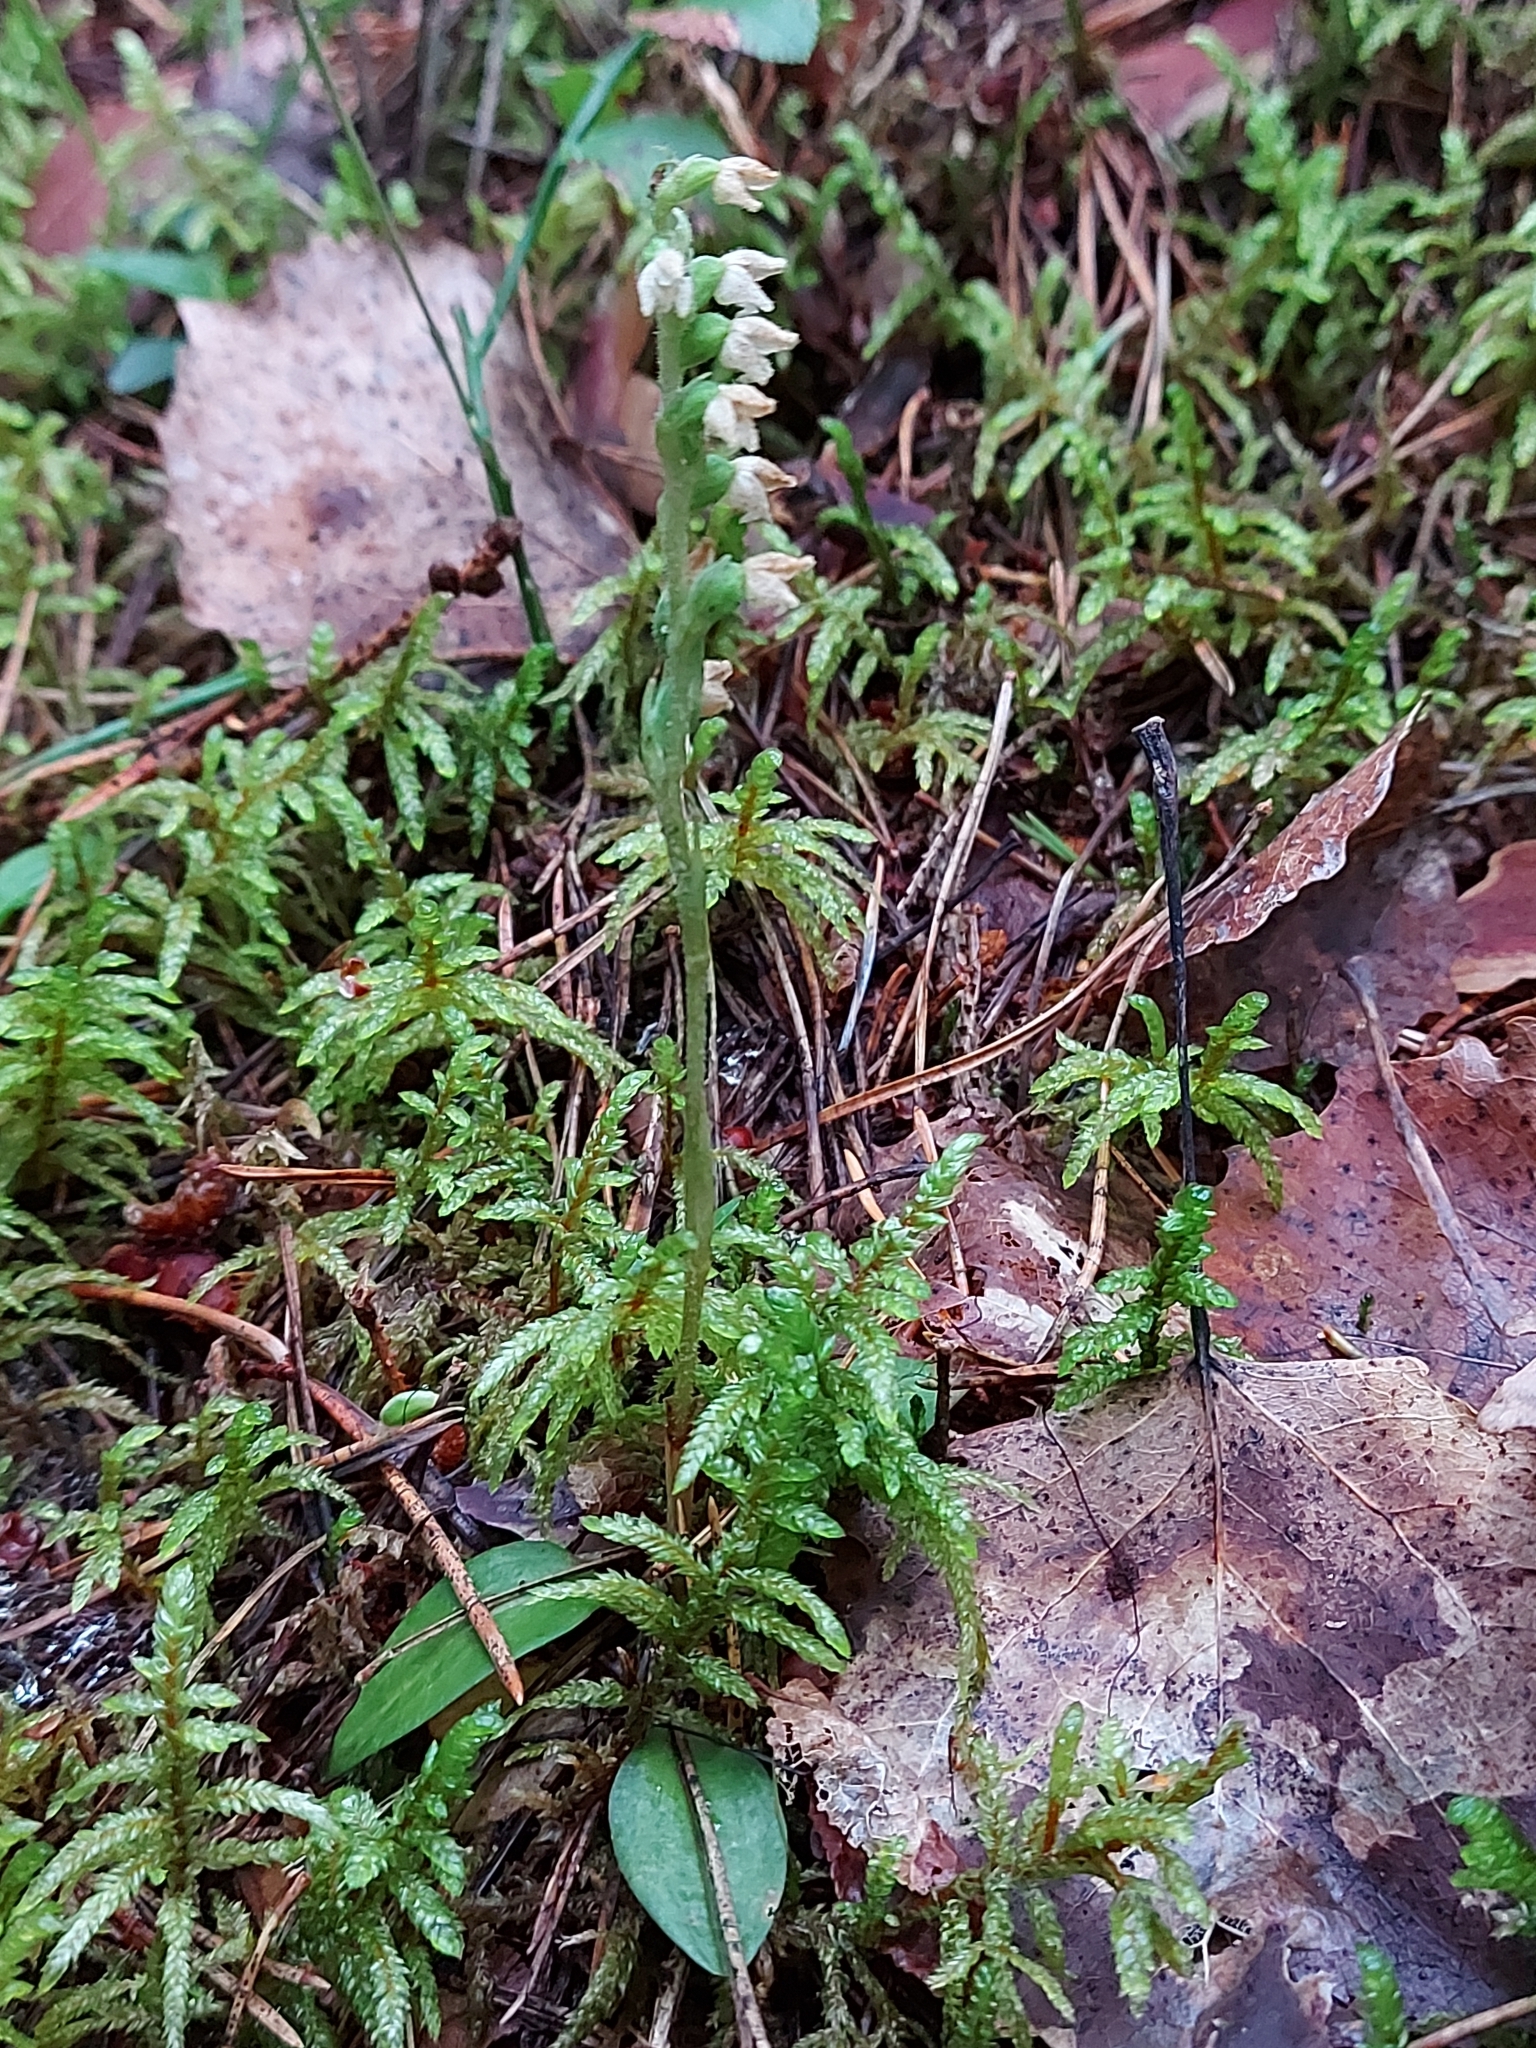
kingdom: Plantae
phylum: Tracheophyta
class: Liliopsida
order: Asparagales
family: Orchidaceae
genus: Goodyera
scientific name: Goodyera repens
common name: Creeping lady's-tresses
